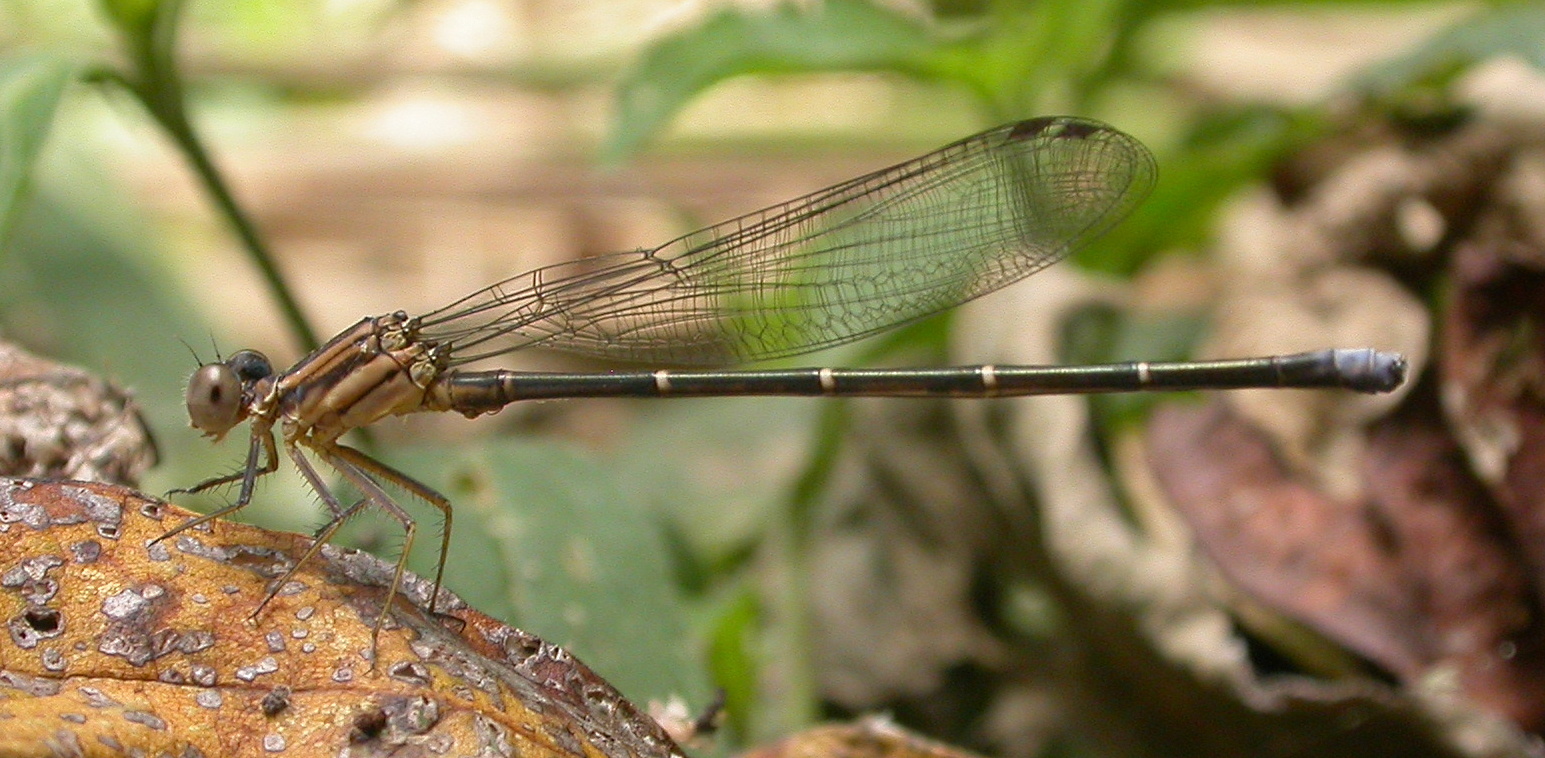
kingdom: Animalia
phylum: Arthropoda
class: Insecta
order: Odonata
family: Coenagrionidae
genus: Argia
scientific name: Argia moesta
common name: Powdered dancer
